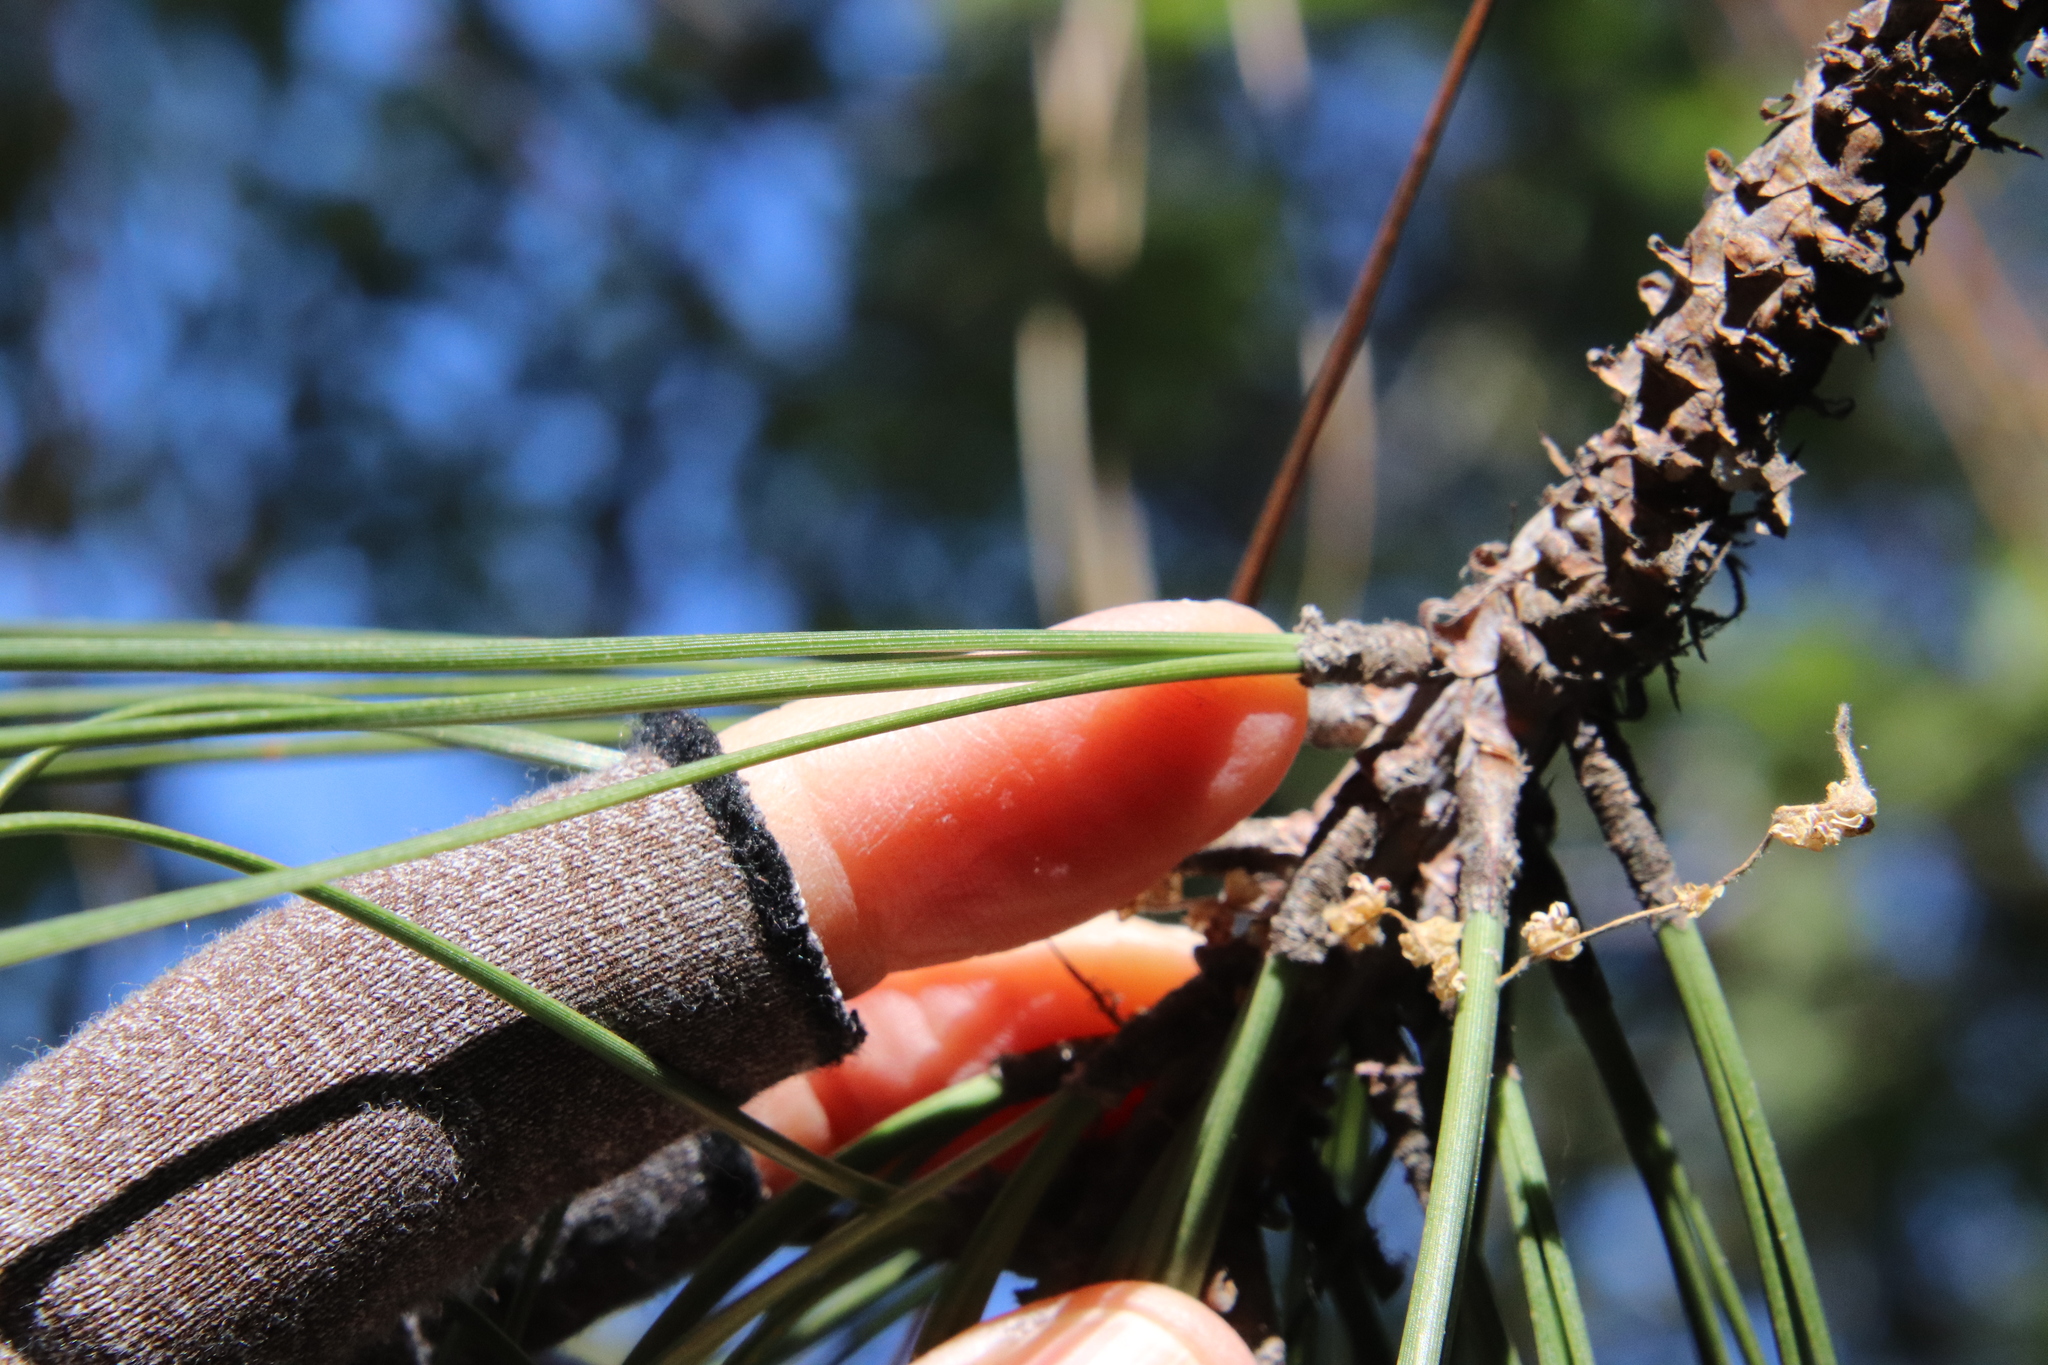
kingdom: Plantae
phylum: Tracheophyta
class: Pinopsida
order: Pinales
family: Pinaceae
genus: Pinus
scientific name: Pinus coulteri
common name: Coulter pine
